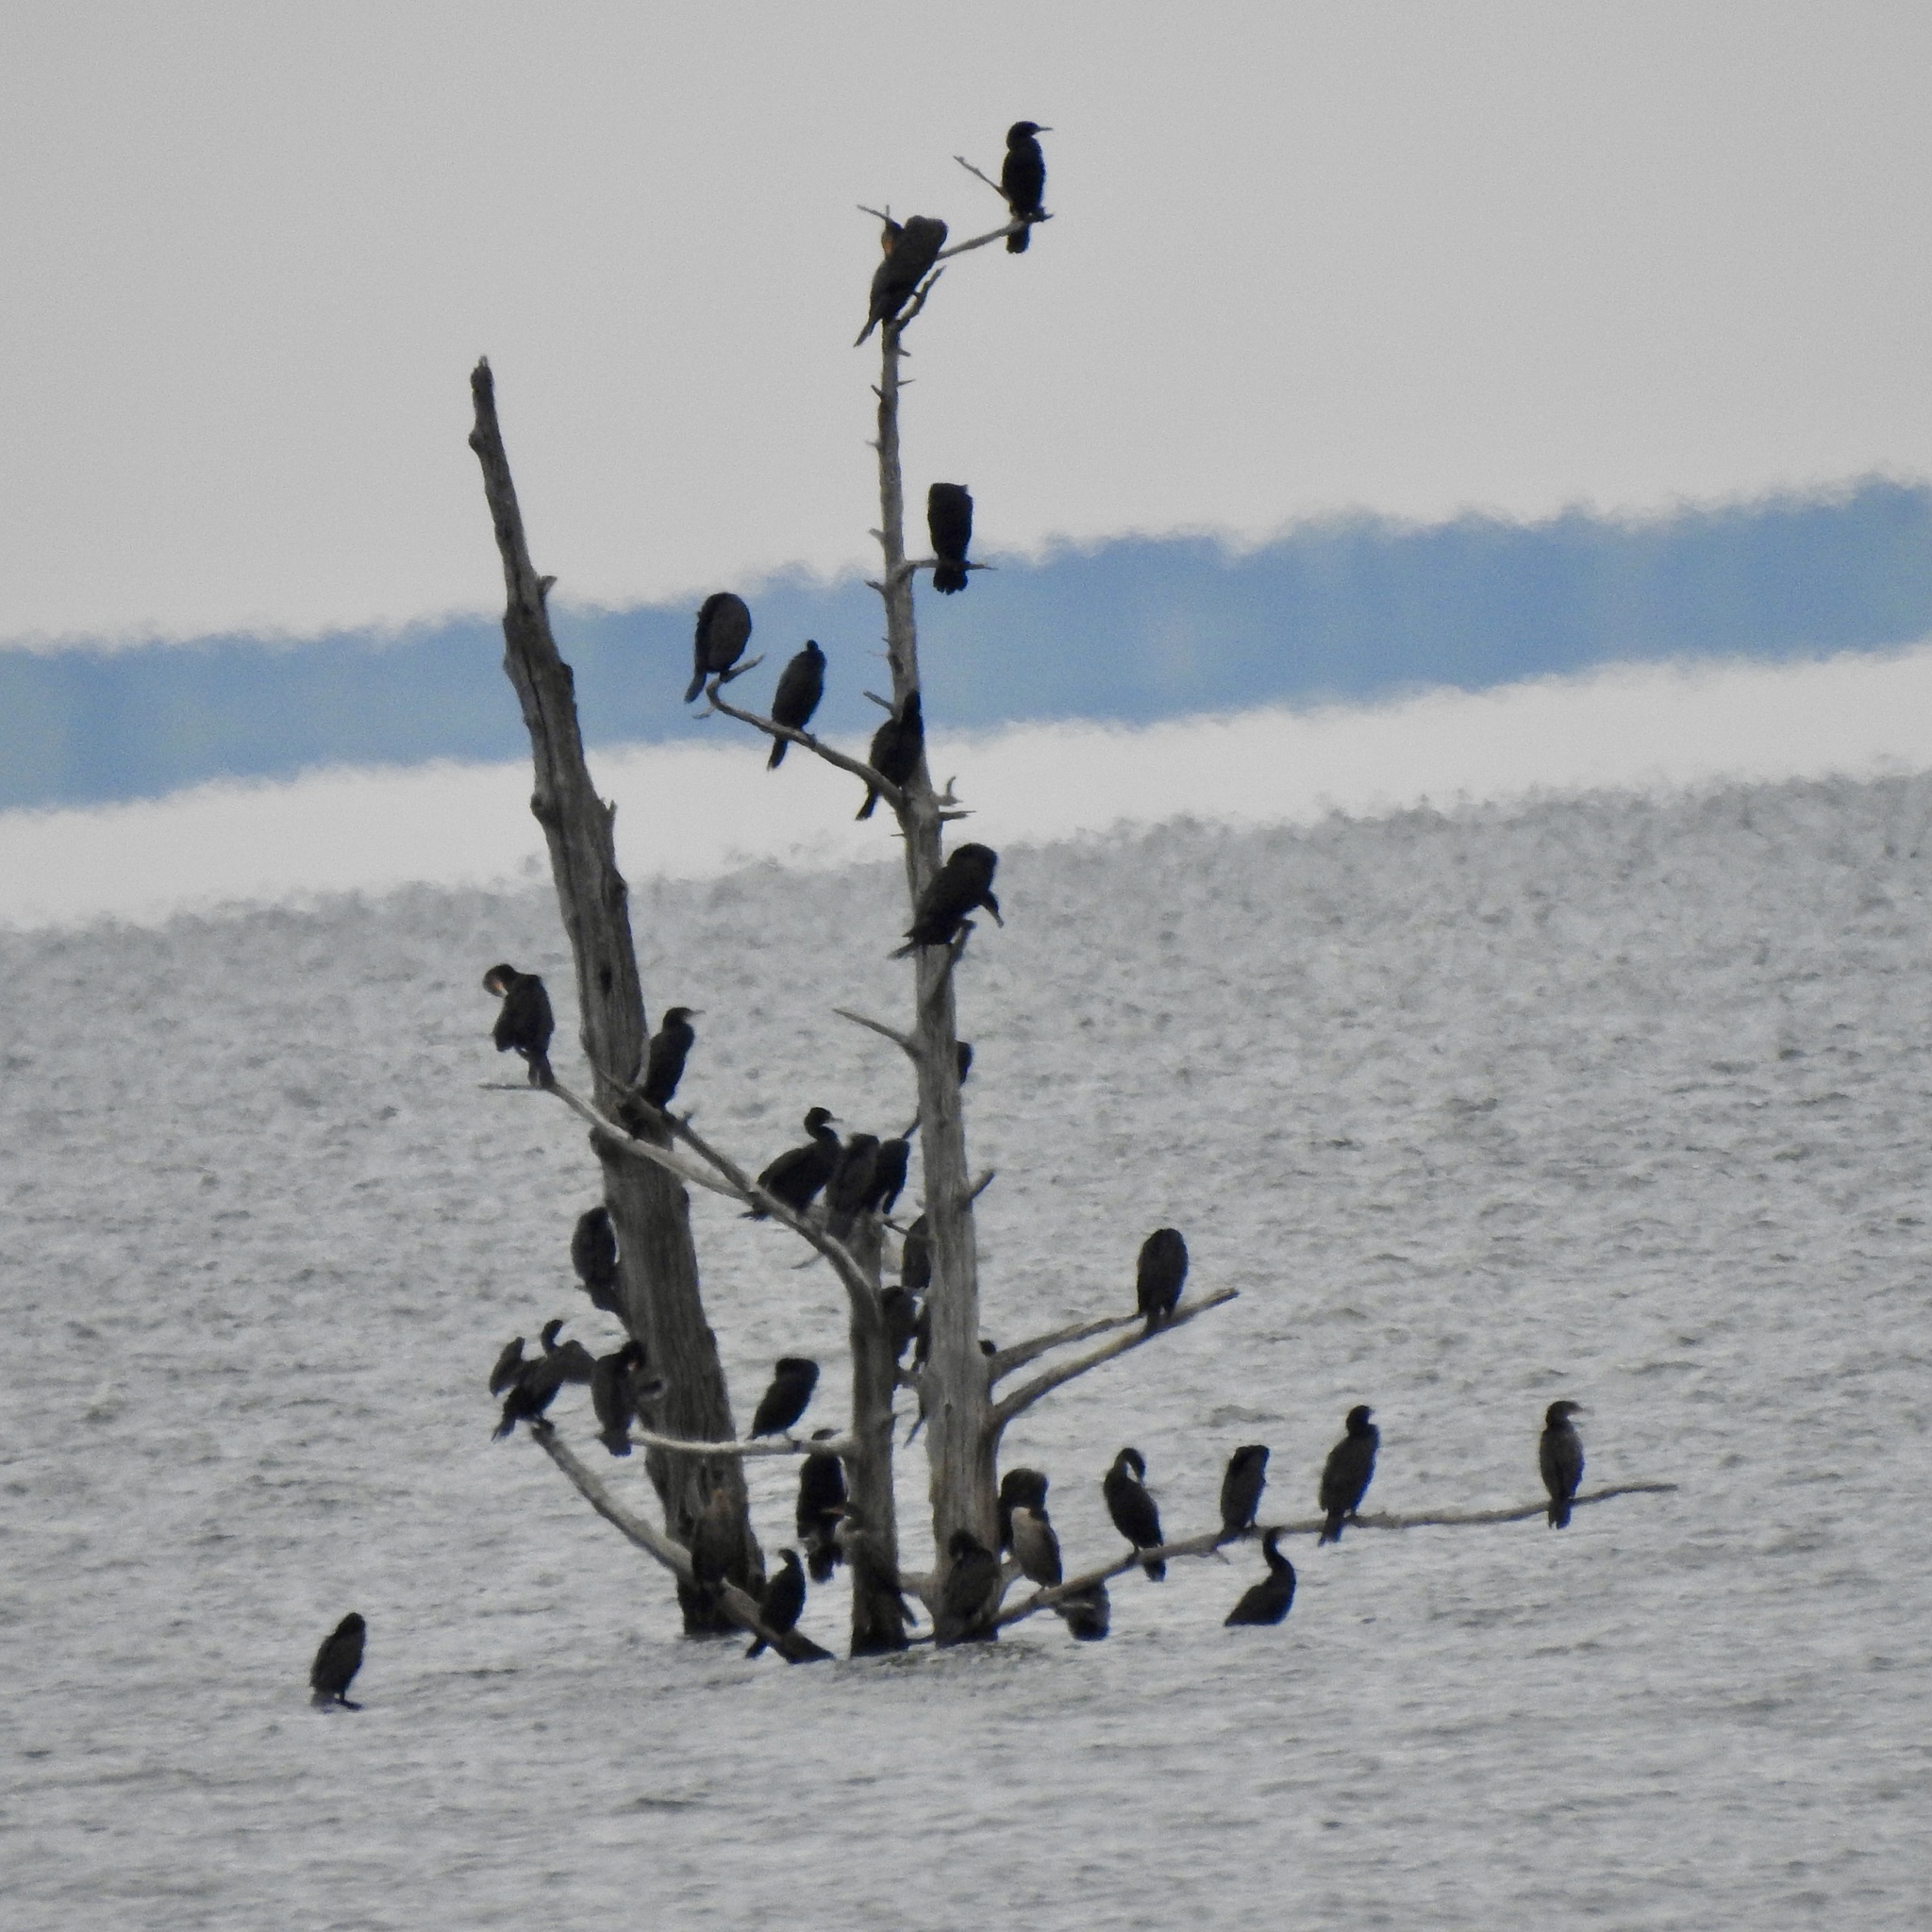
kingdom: Animalia
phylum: Chordata
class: Aves
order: Suliformes
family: Phalacrocoracidae
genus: Phalacrocorax
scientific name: Phalacrocorax auritus
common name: Double-crested cormorant
